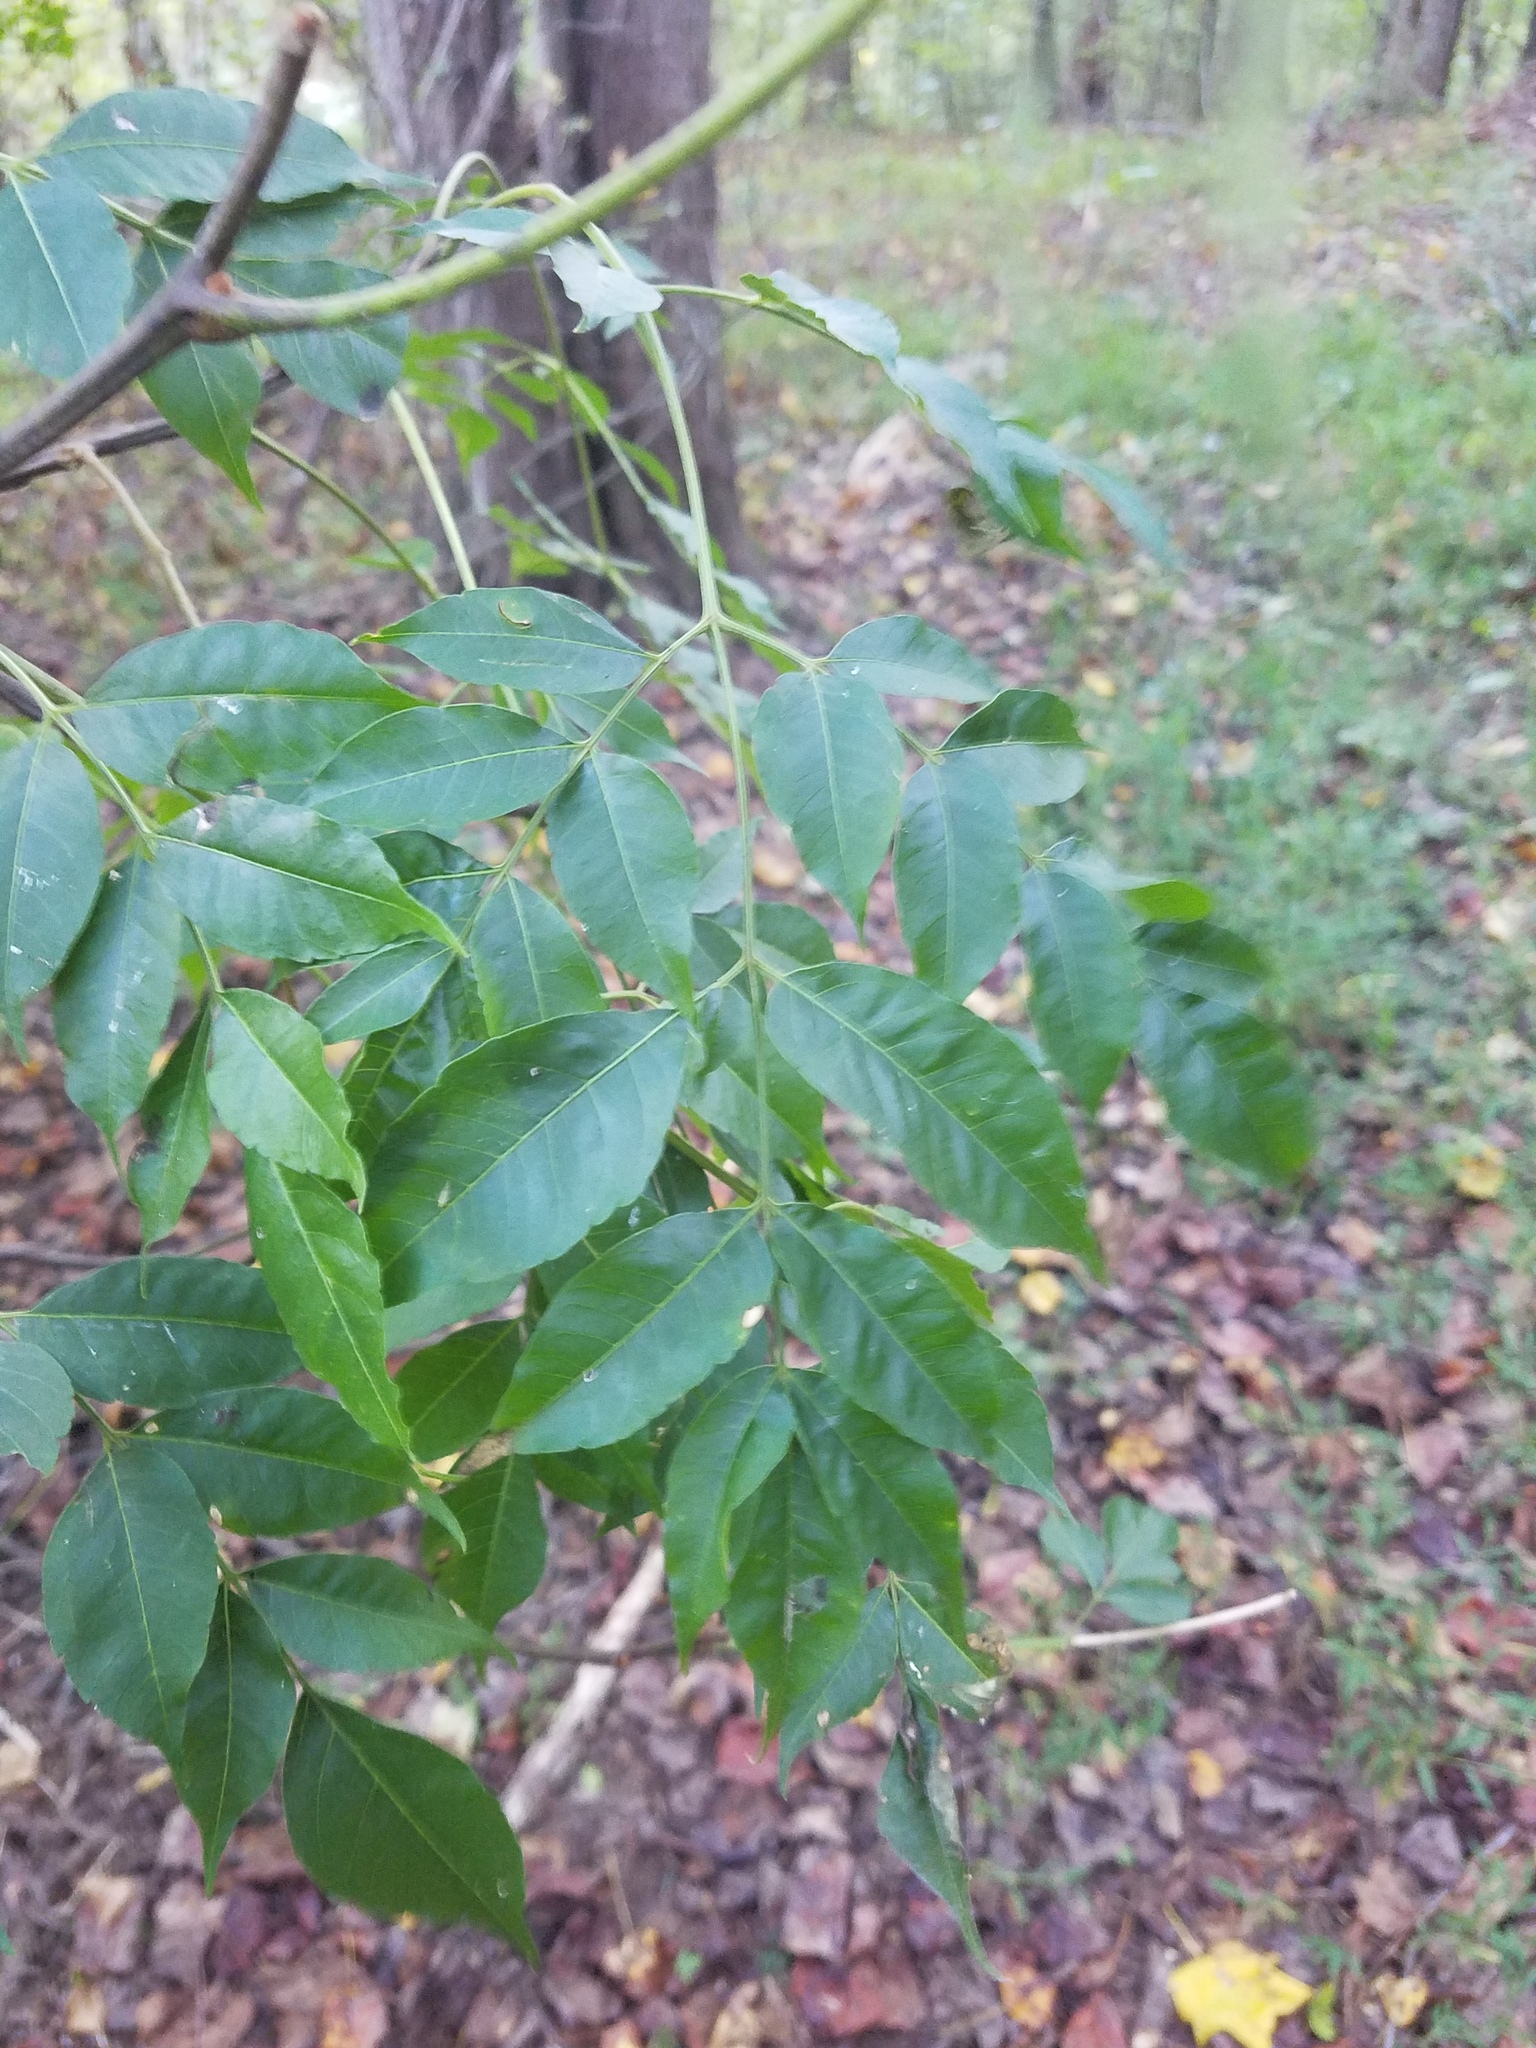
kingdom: Plantae
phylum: Tracheophyta
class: Magnoliopsida
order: Sapindales
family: Meliaceae
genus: Melia
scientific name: Melia azedarach
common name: Chinaberrytree
